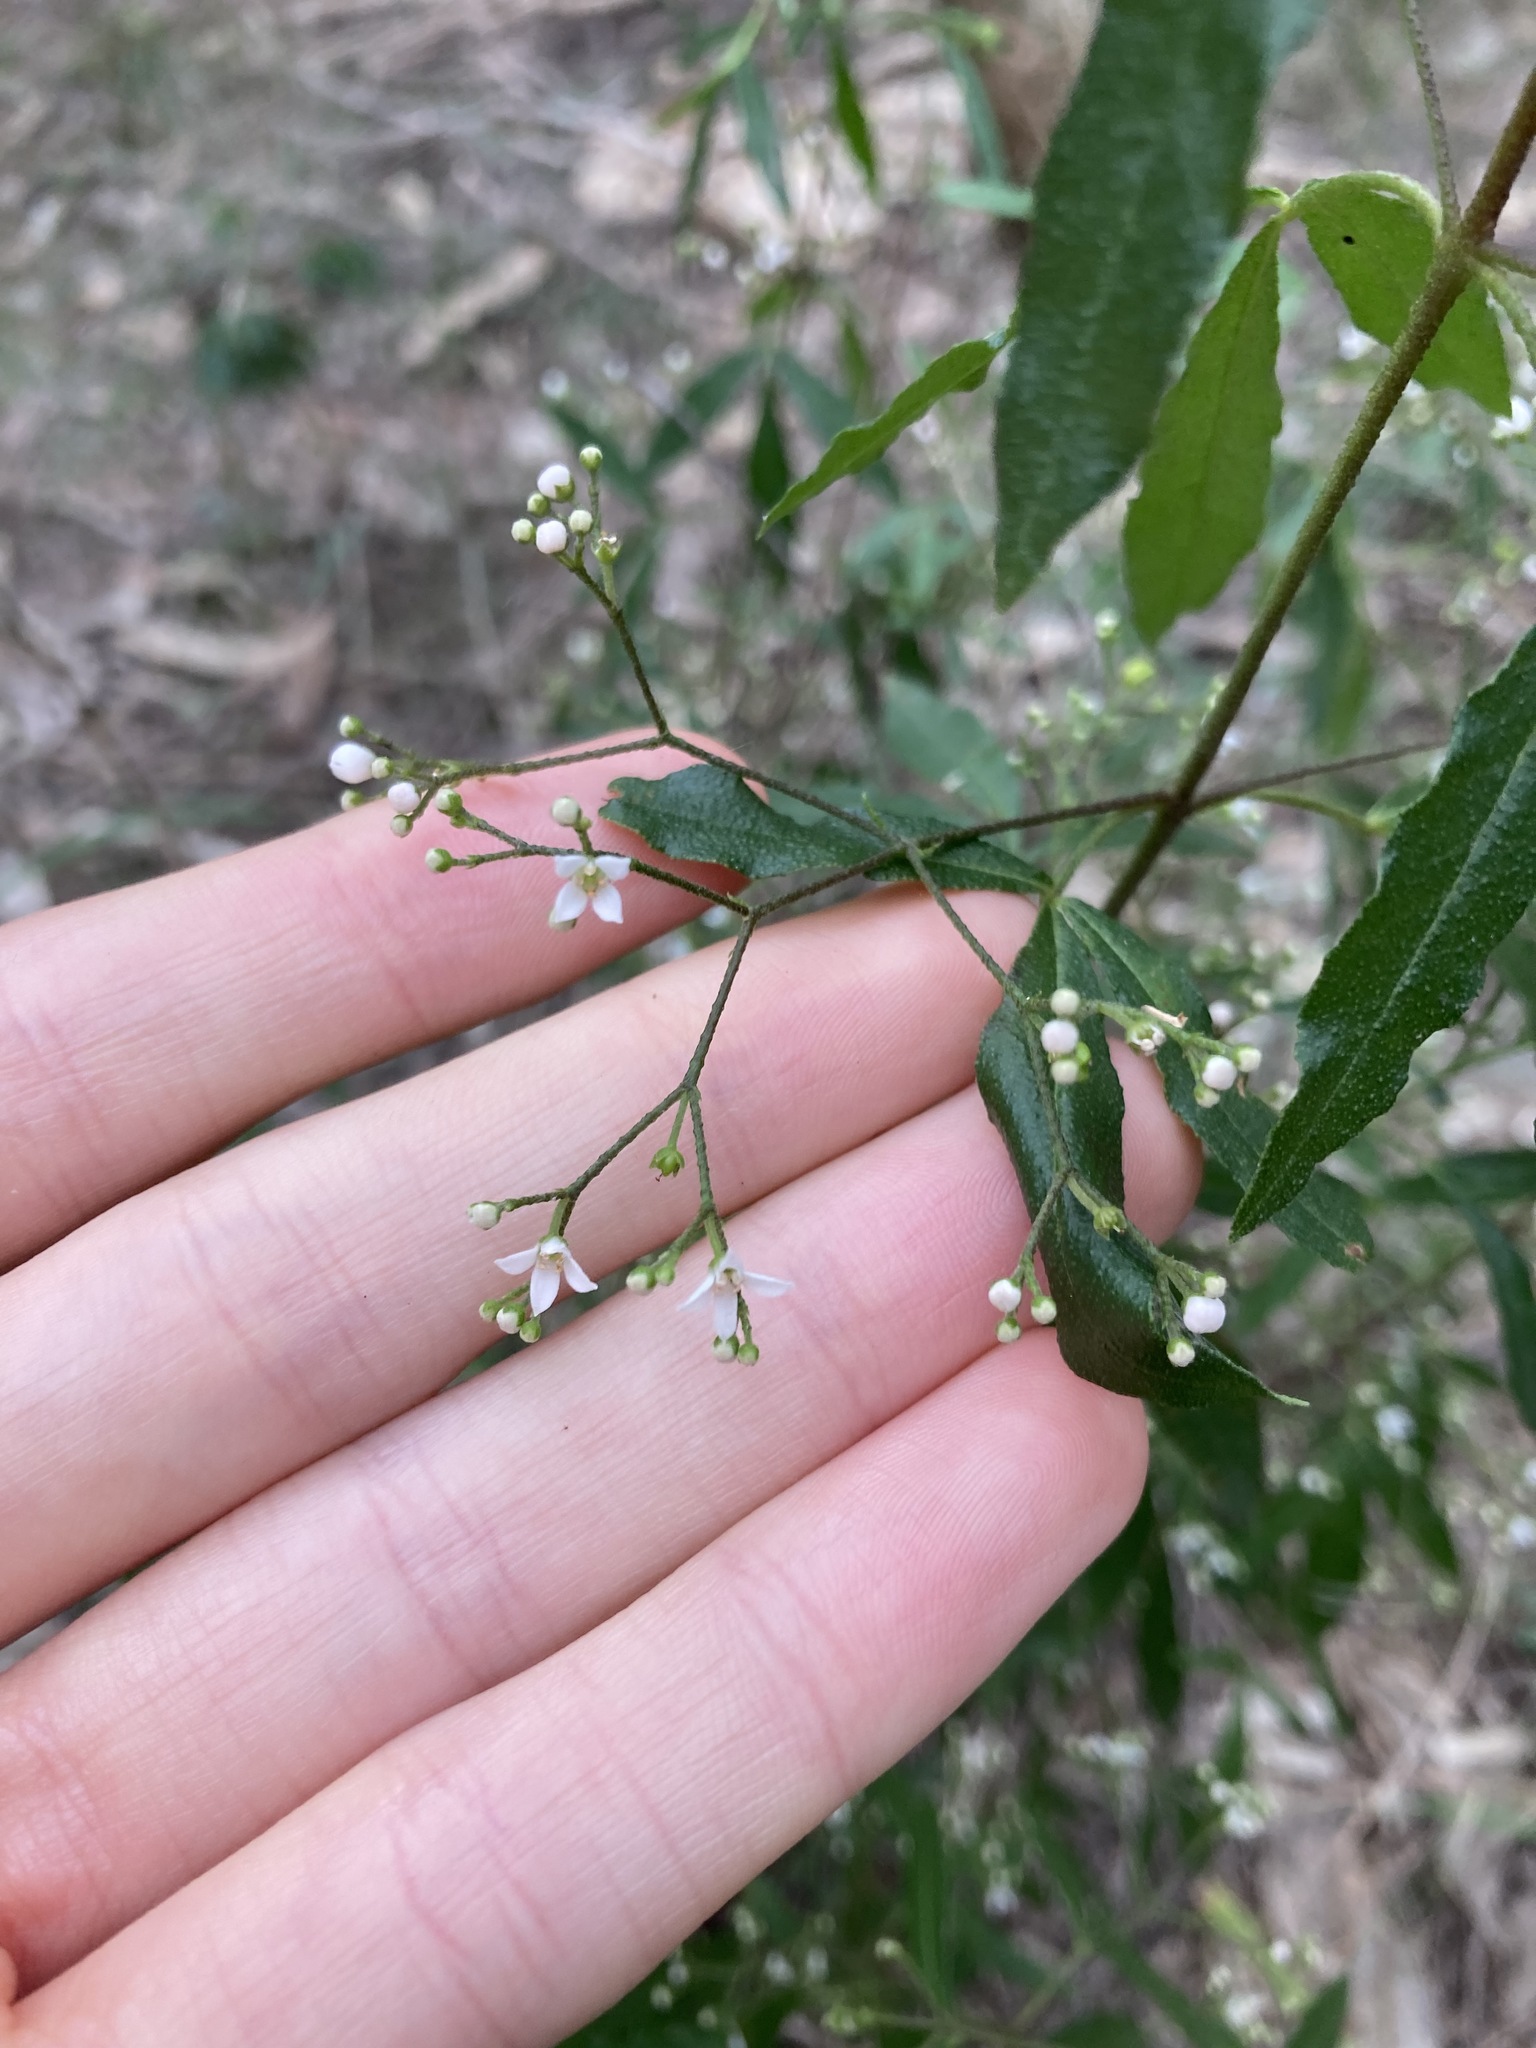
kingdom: Plantae
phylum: Tracheophyta
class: Magnoliopsida
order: Sapindales
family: Rutaceae
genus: Zieria
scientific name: Zieria smithii
